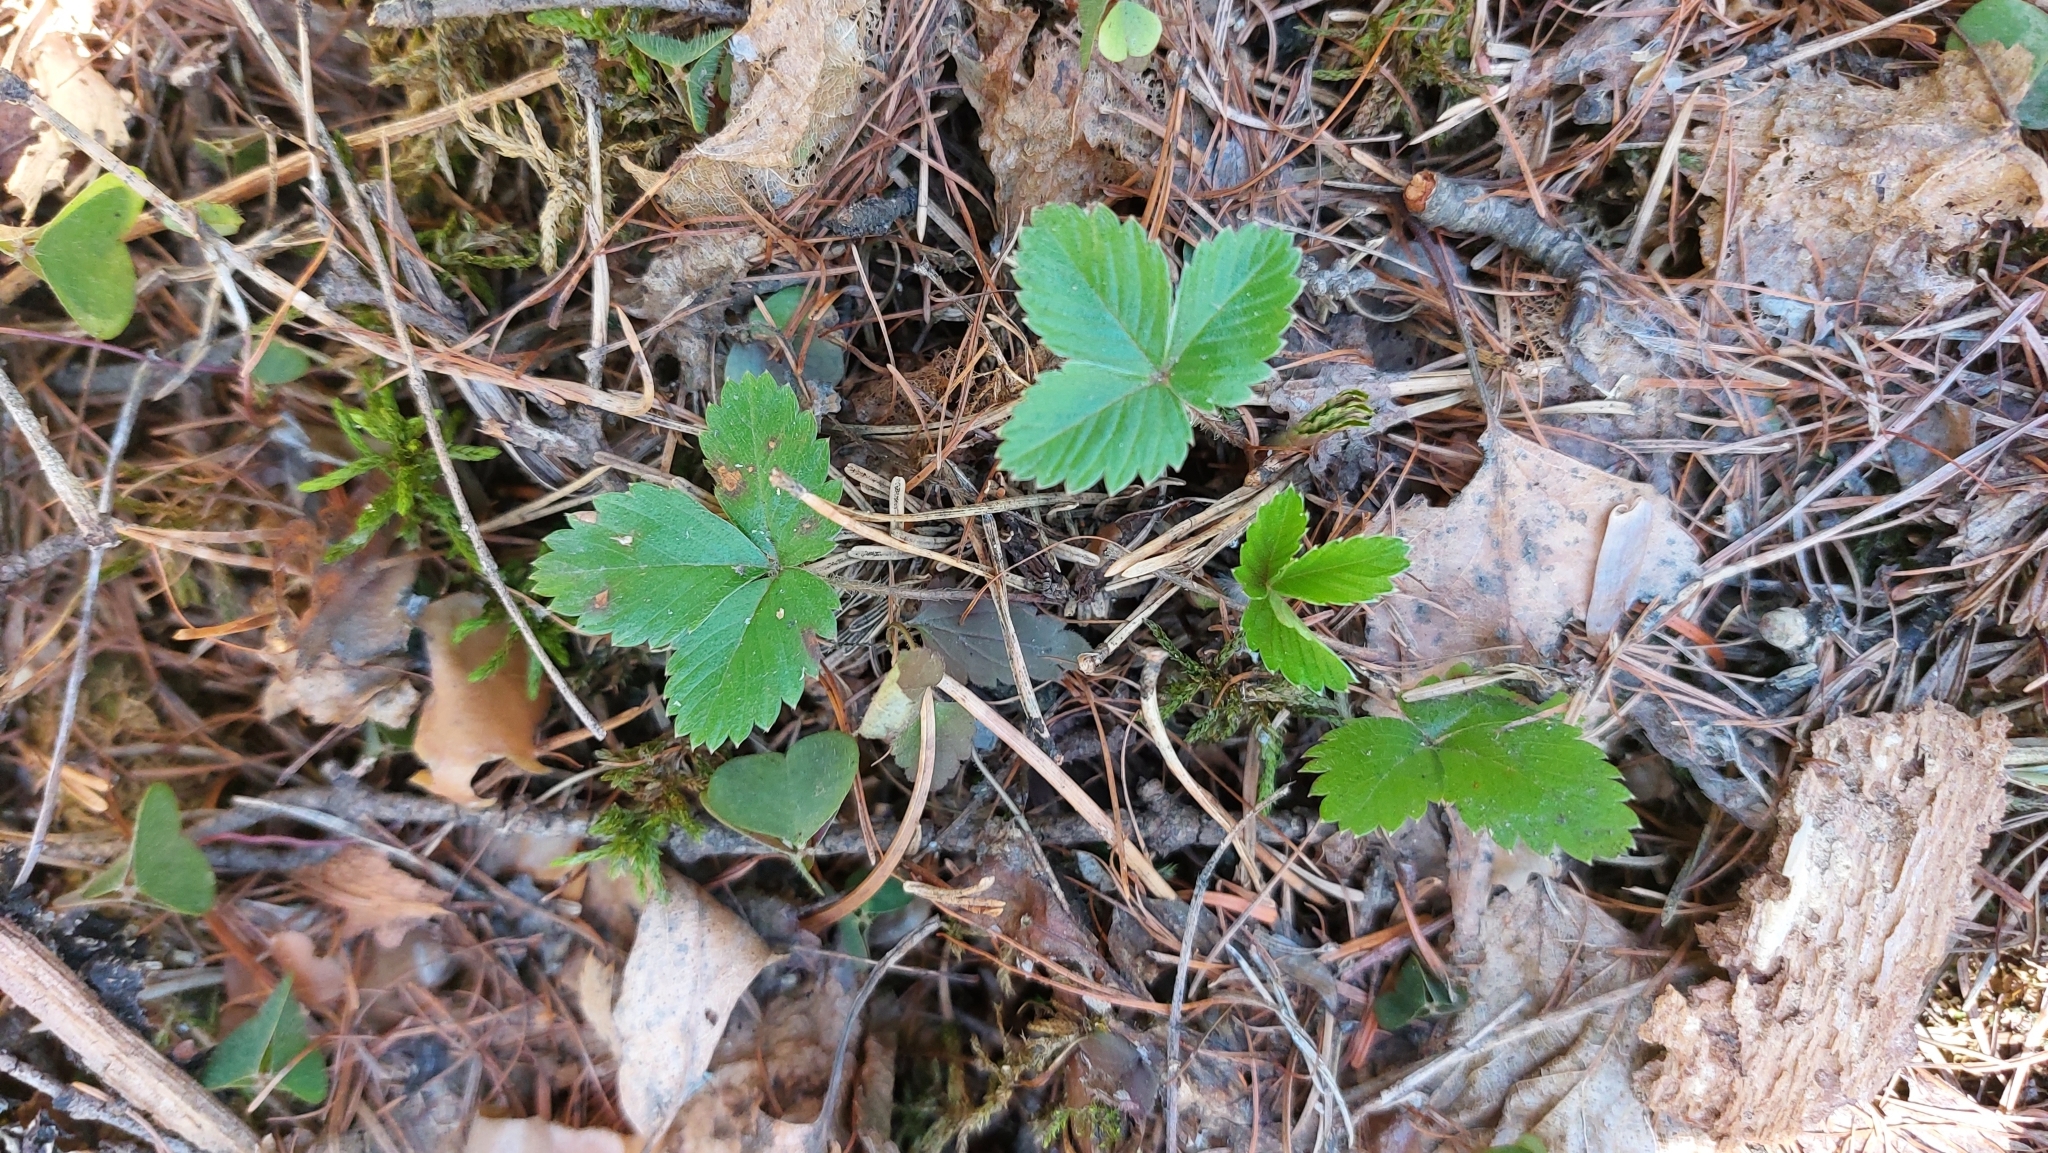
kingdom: Plantae
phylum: Tracheophyta
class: Magnoliopsida
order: Rosales
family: Rosaceae
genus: Fragaria
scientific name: Fragaria vesca
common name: Wild strawberry
